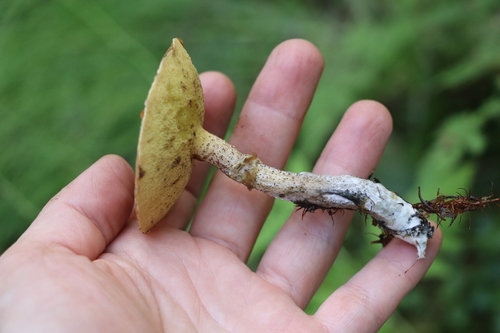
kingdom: Fungi
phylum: Basidiomycota
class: Agaricomycetes
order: Boletales
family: Suillaceae
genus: Suillus
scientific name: Suillus acidus
